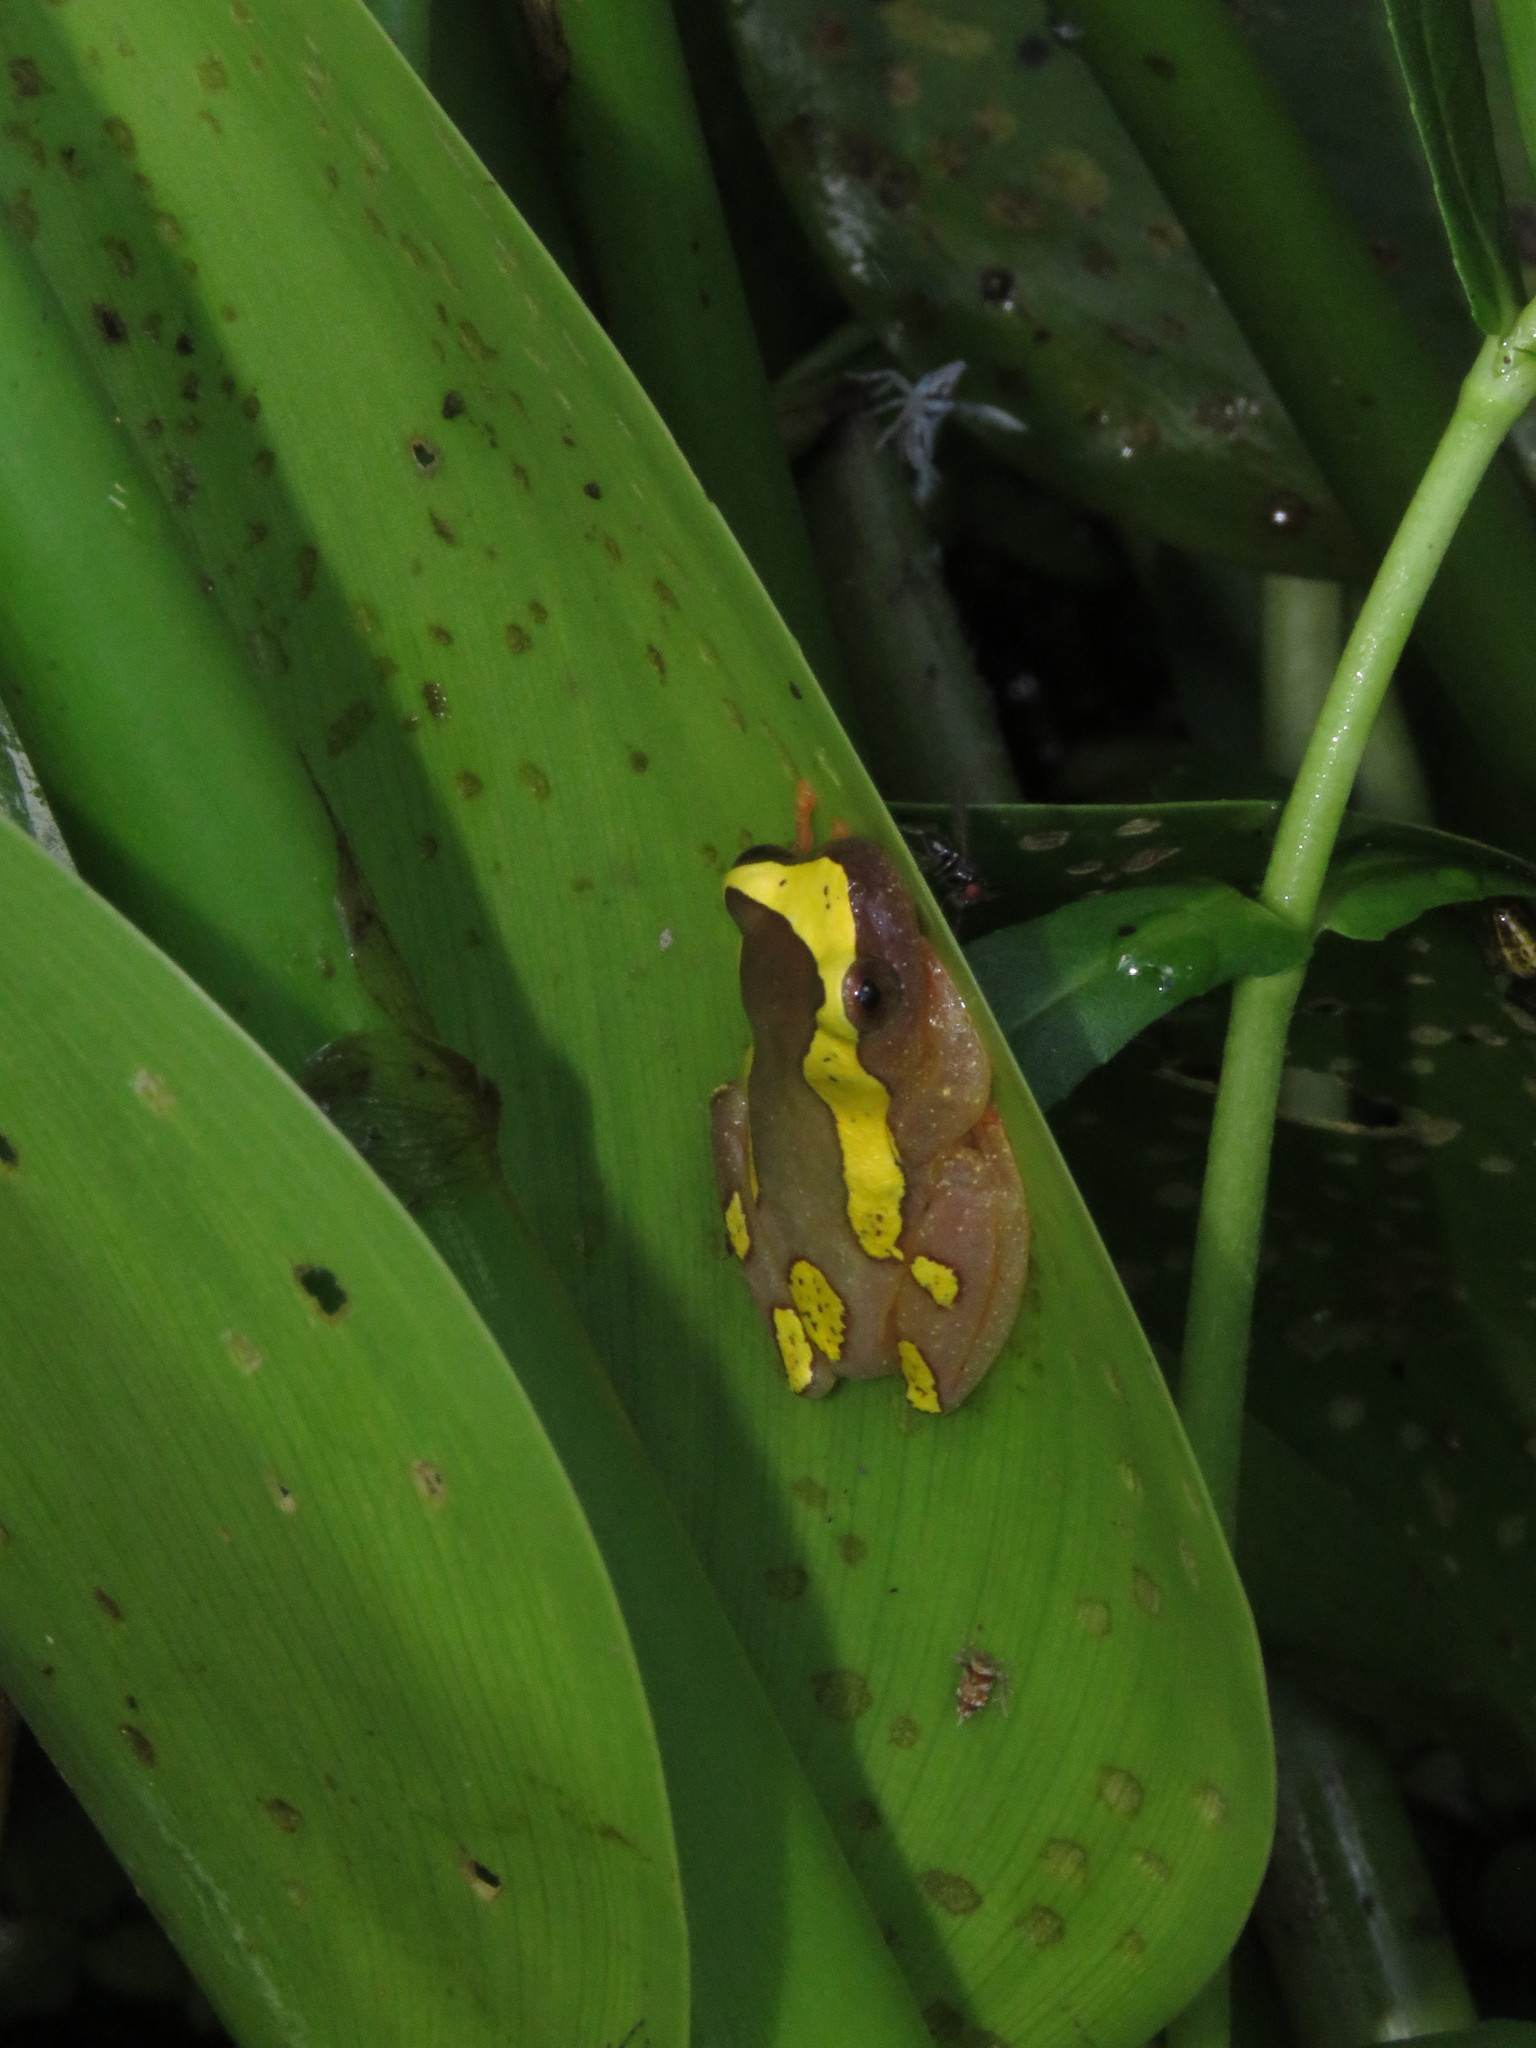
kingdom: Animalia
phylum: Chordata
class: Amphibia
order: Anura
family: Hylidae
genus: Dendropsophus
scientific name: Dendropsophus arndti
